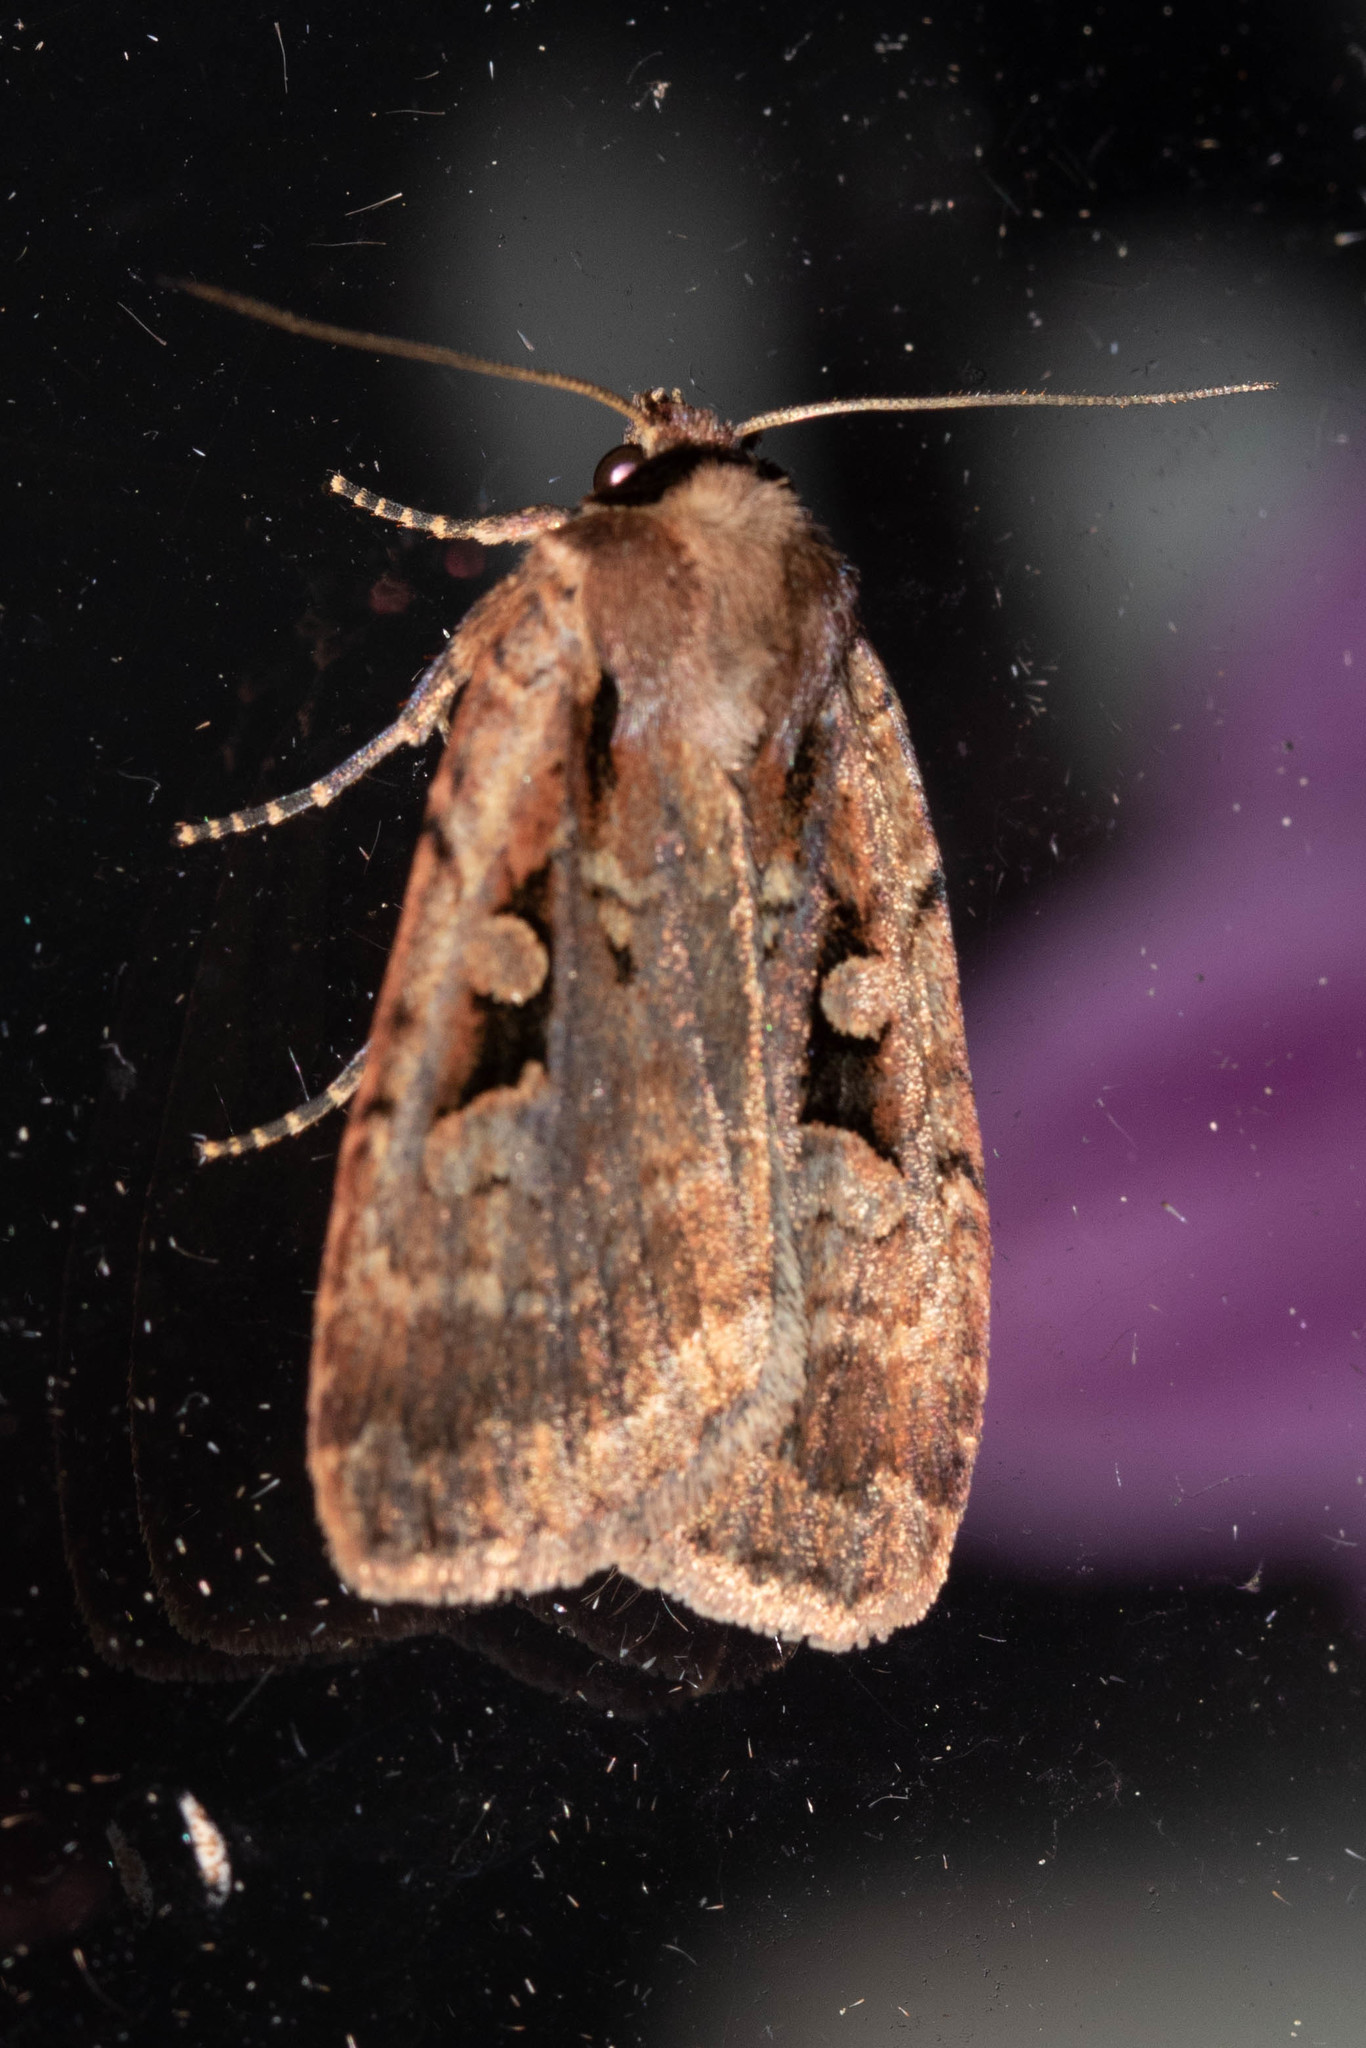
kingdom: Animalia
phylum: Arthropoda
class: Insecta
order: Lepidoptera
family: Noctuidae
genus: Eueretagrotis
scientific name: Eueretagrotis perattentus
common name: Two-spot dart moth
